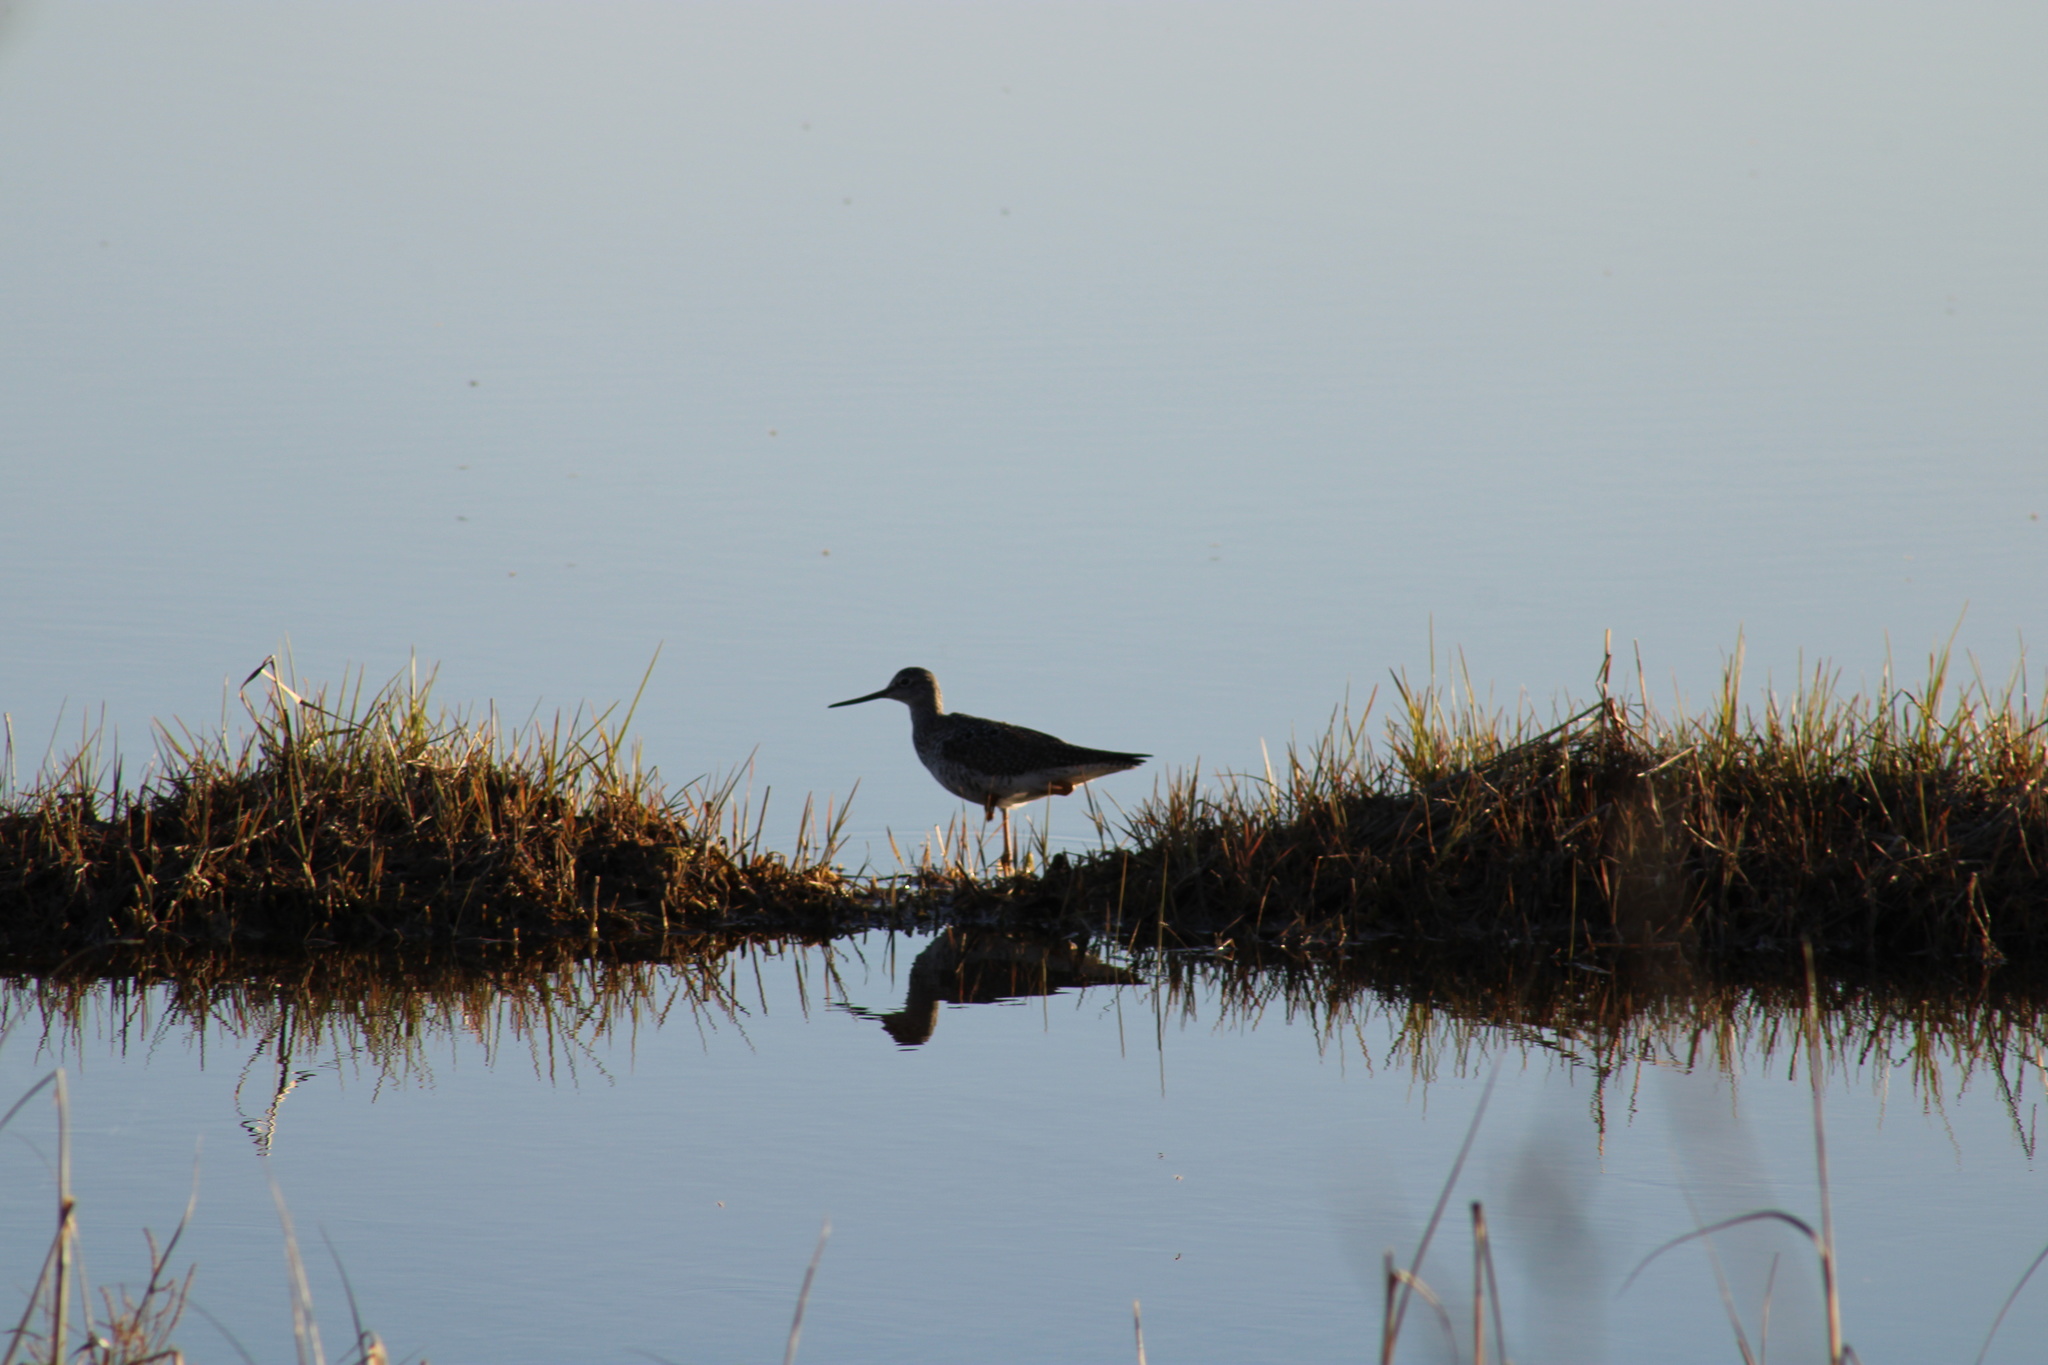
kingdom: Animalia
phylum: Chordata
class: Aves
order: Charadriiformes
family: Scolopacidae
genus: Tringa
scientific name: Tringa melanoleuca
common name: Greater yellowlegs
